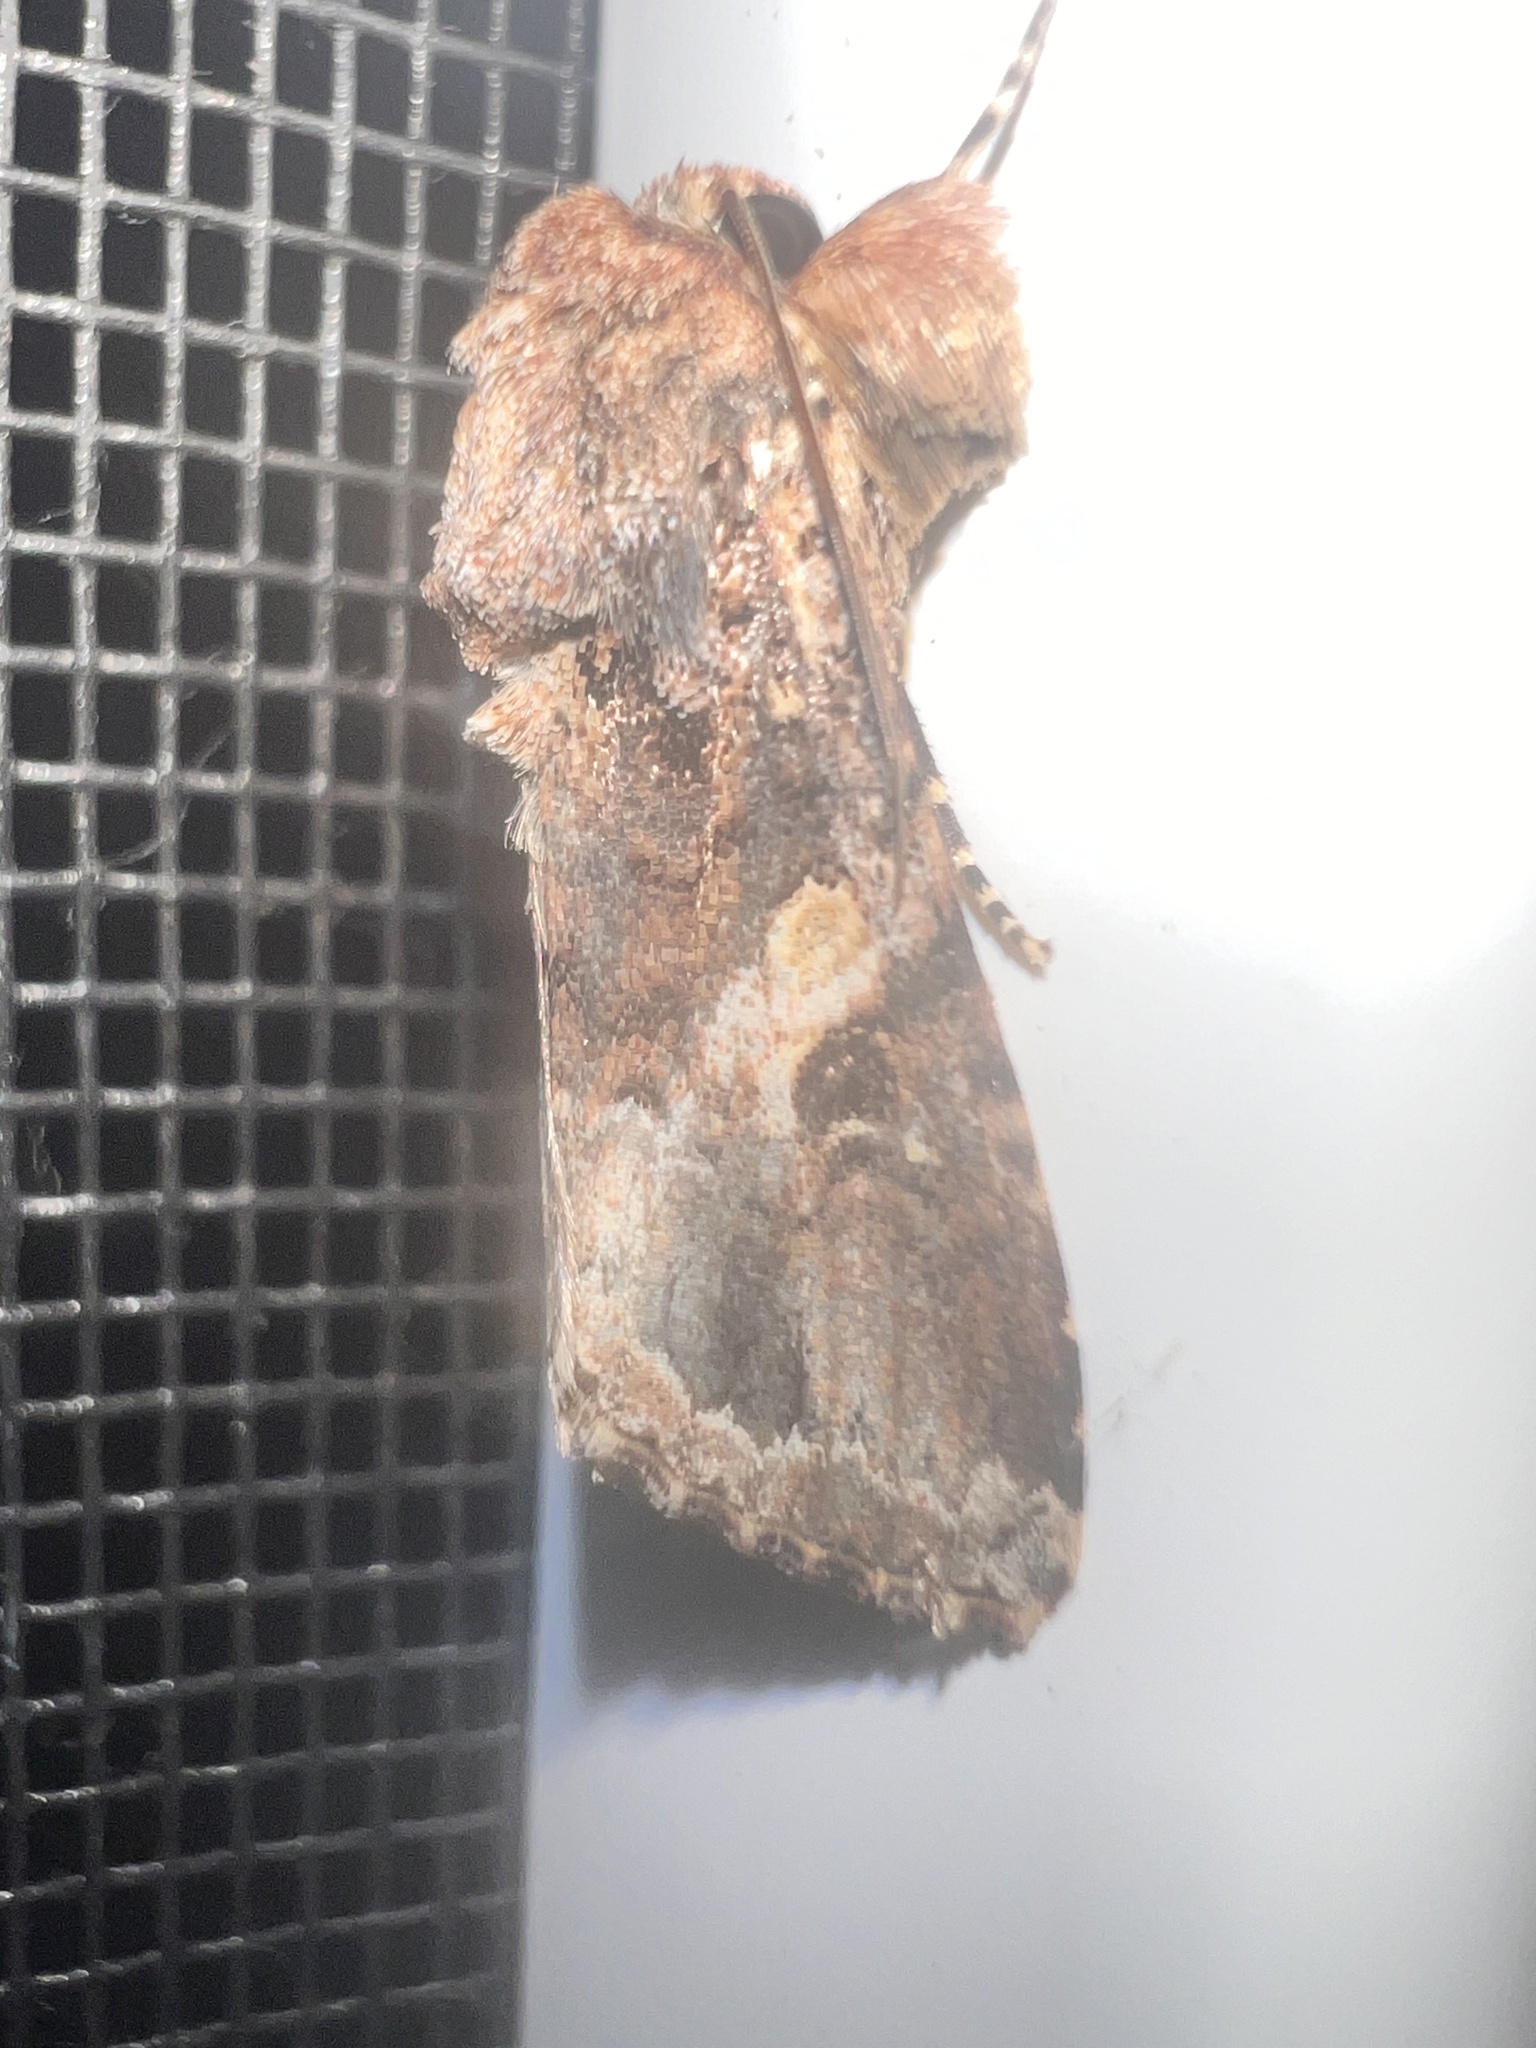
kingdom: Animalia
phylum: Arthropoda
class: Insecta
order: Lepidoptera
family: Noctuidae
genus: Spodoptera
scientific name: Spodoptera mauritia
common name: Lawn armyworm
